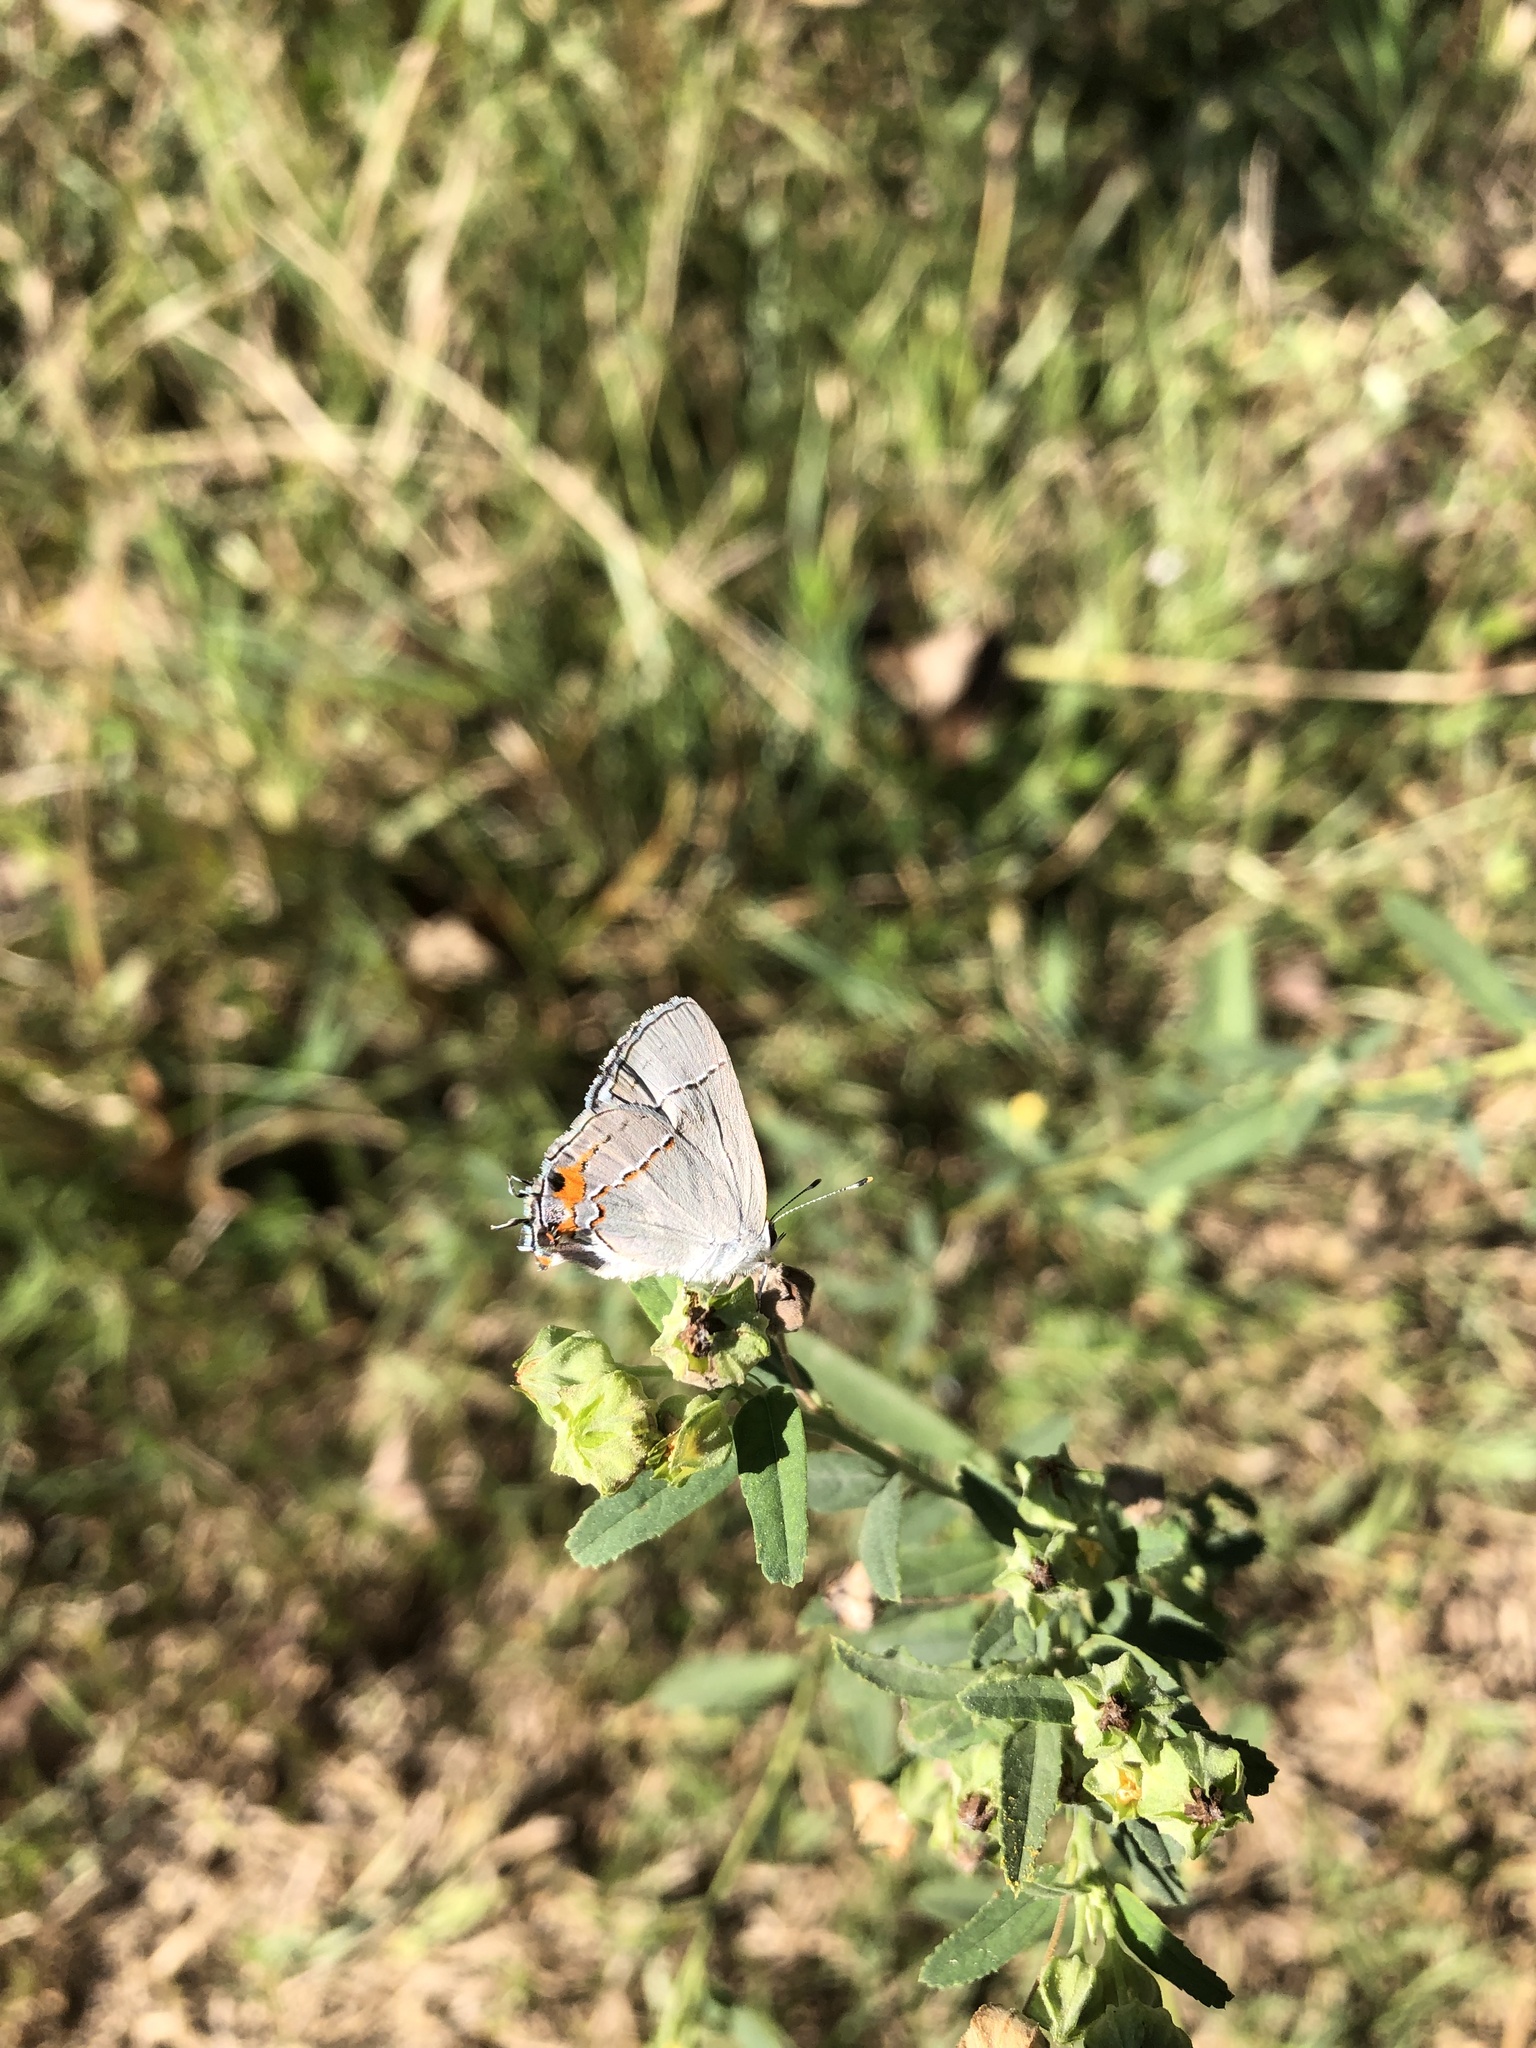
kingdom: Animalia
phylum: Arthropoda
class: Insecta
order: Lepidoptera
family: Lycaenidae
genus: Strymon
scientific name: Strymon melinus
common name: Gray hairstreak
